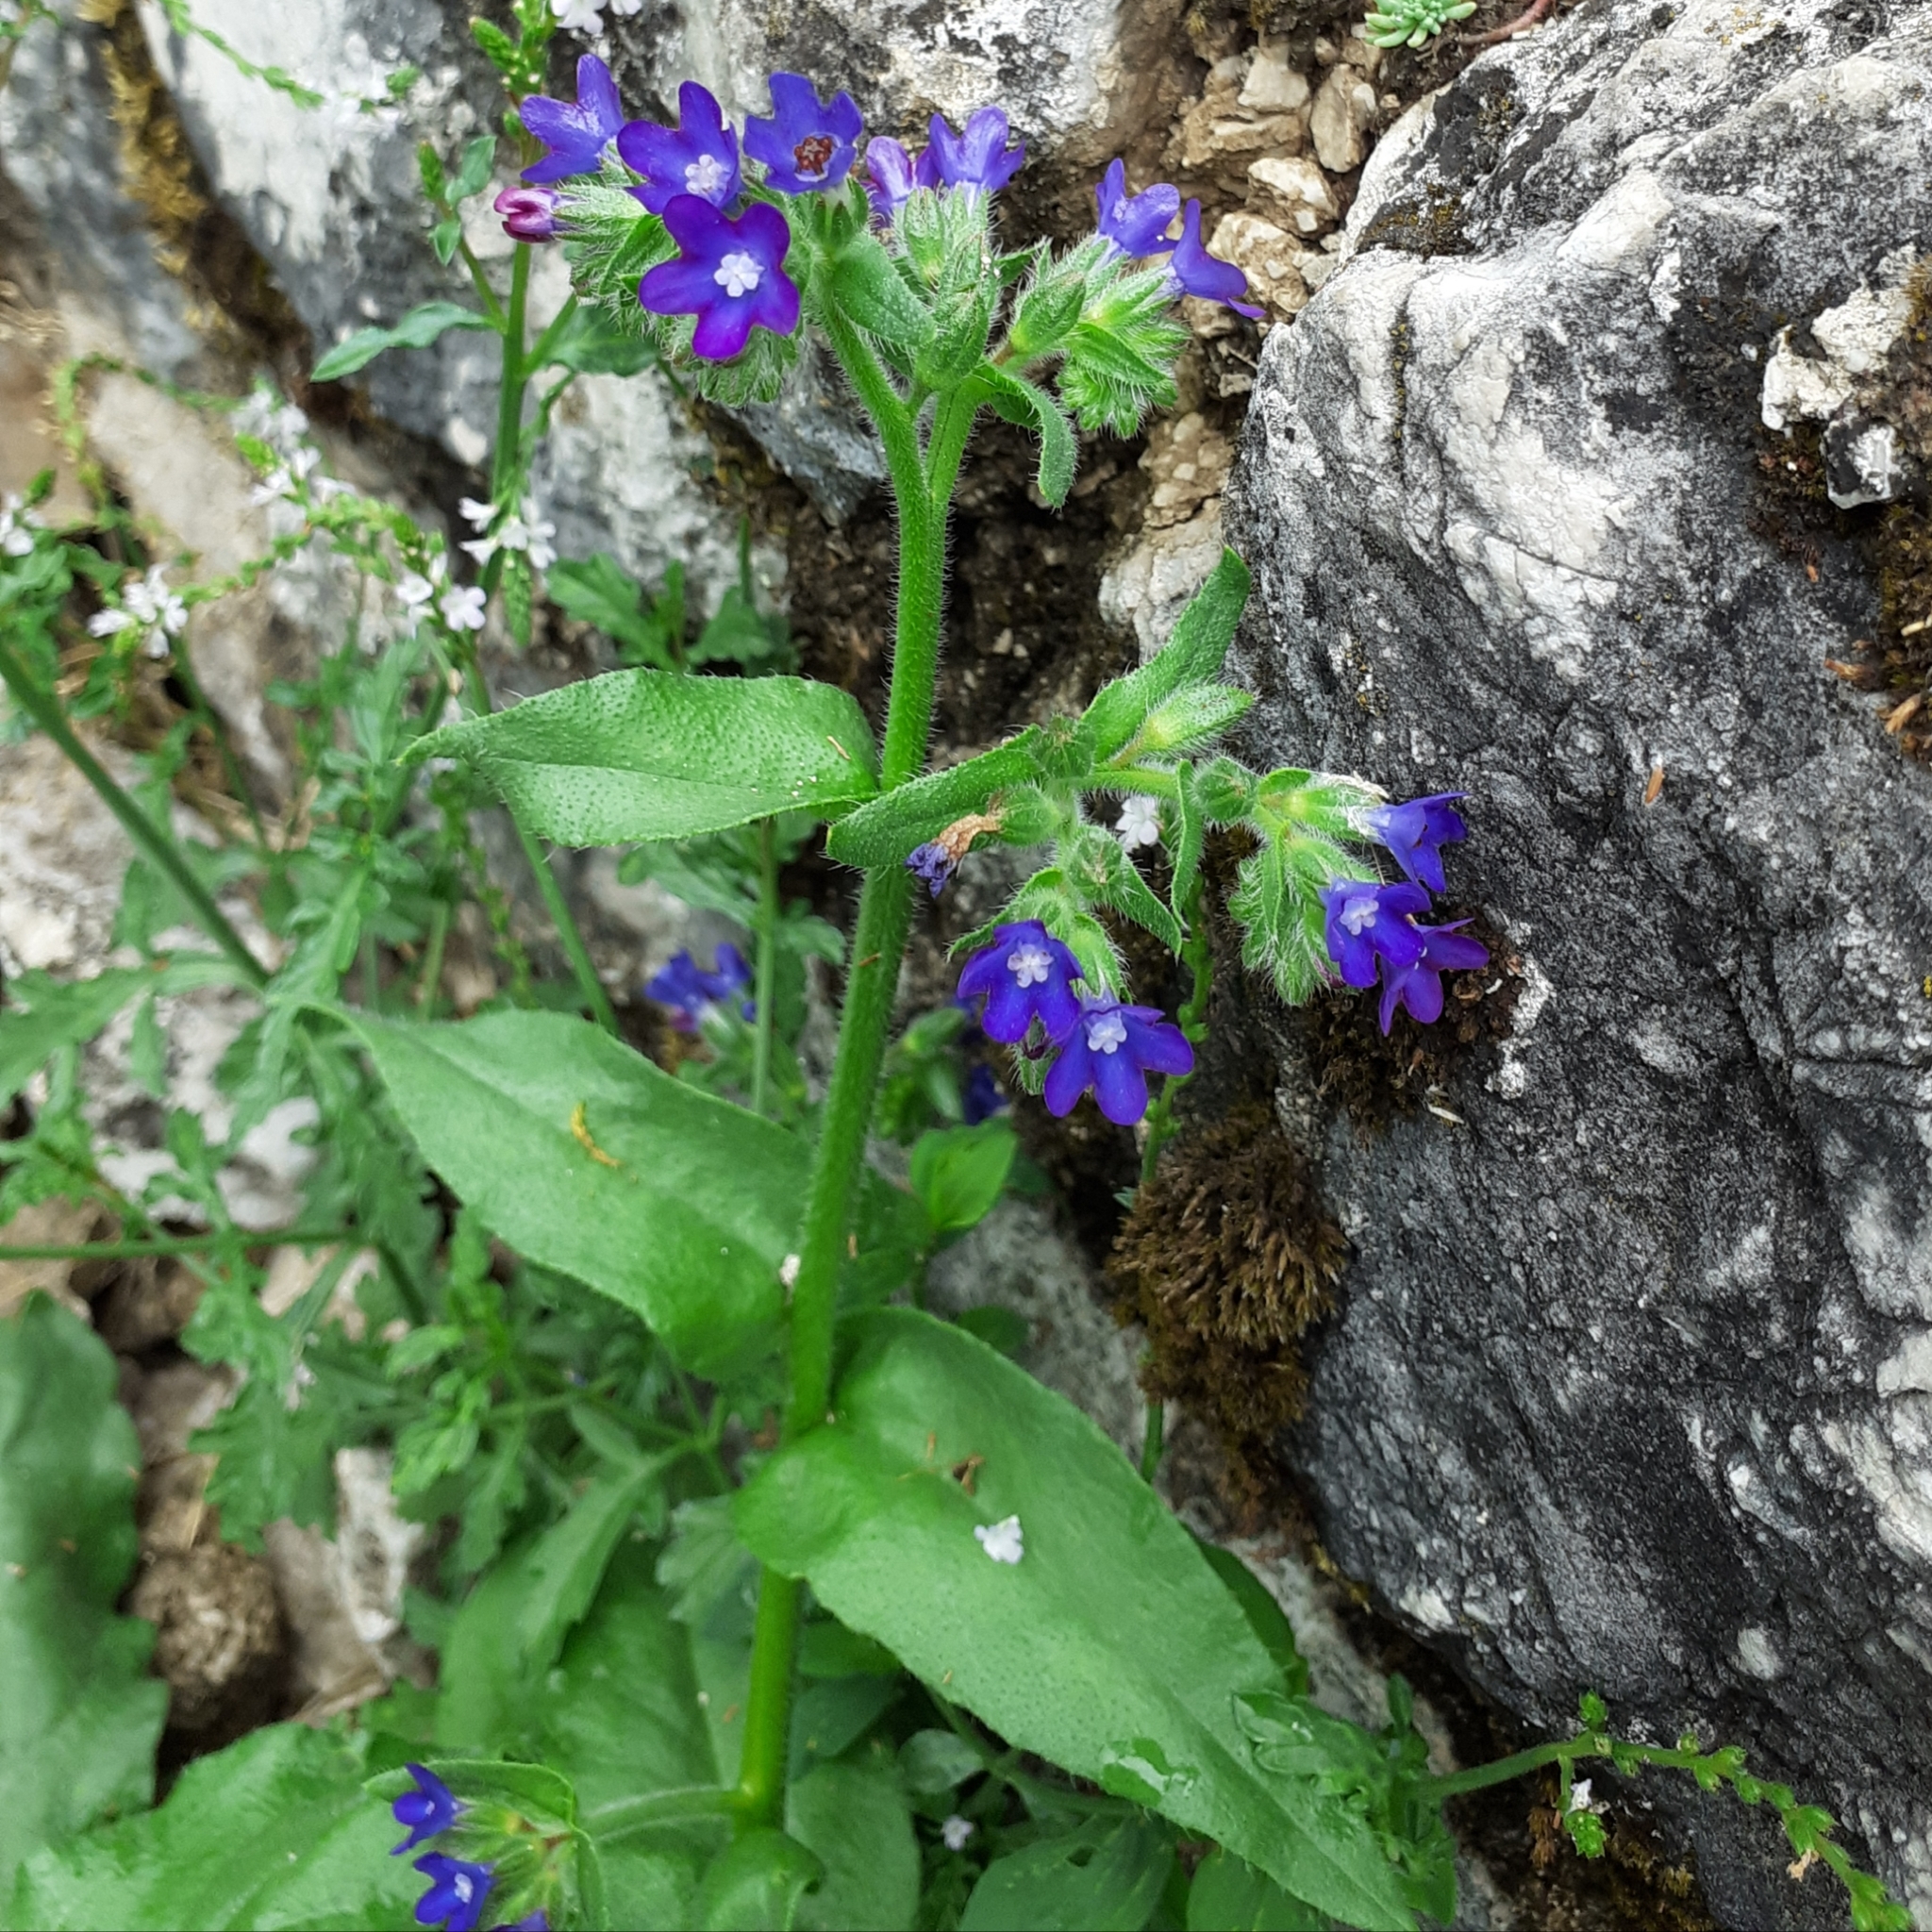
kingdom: Plantae
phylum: Tracheophyta
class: Magnoliopsida
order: Boraginales
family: Boraginaceae
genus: Anchusa
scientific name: Anchusa officinalis
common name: Alkanet
